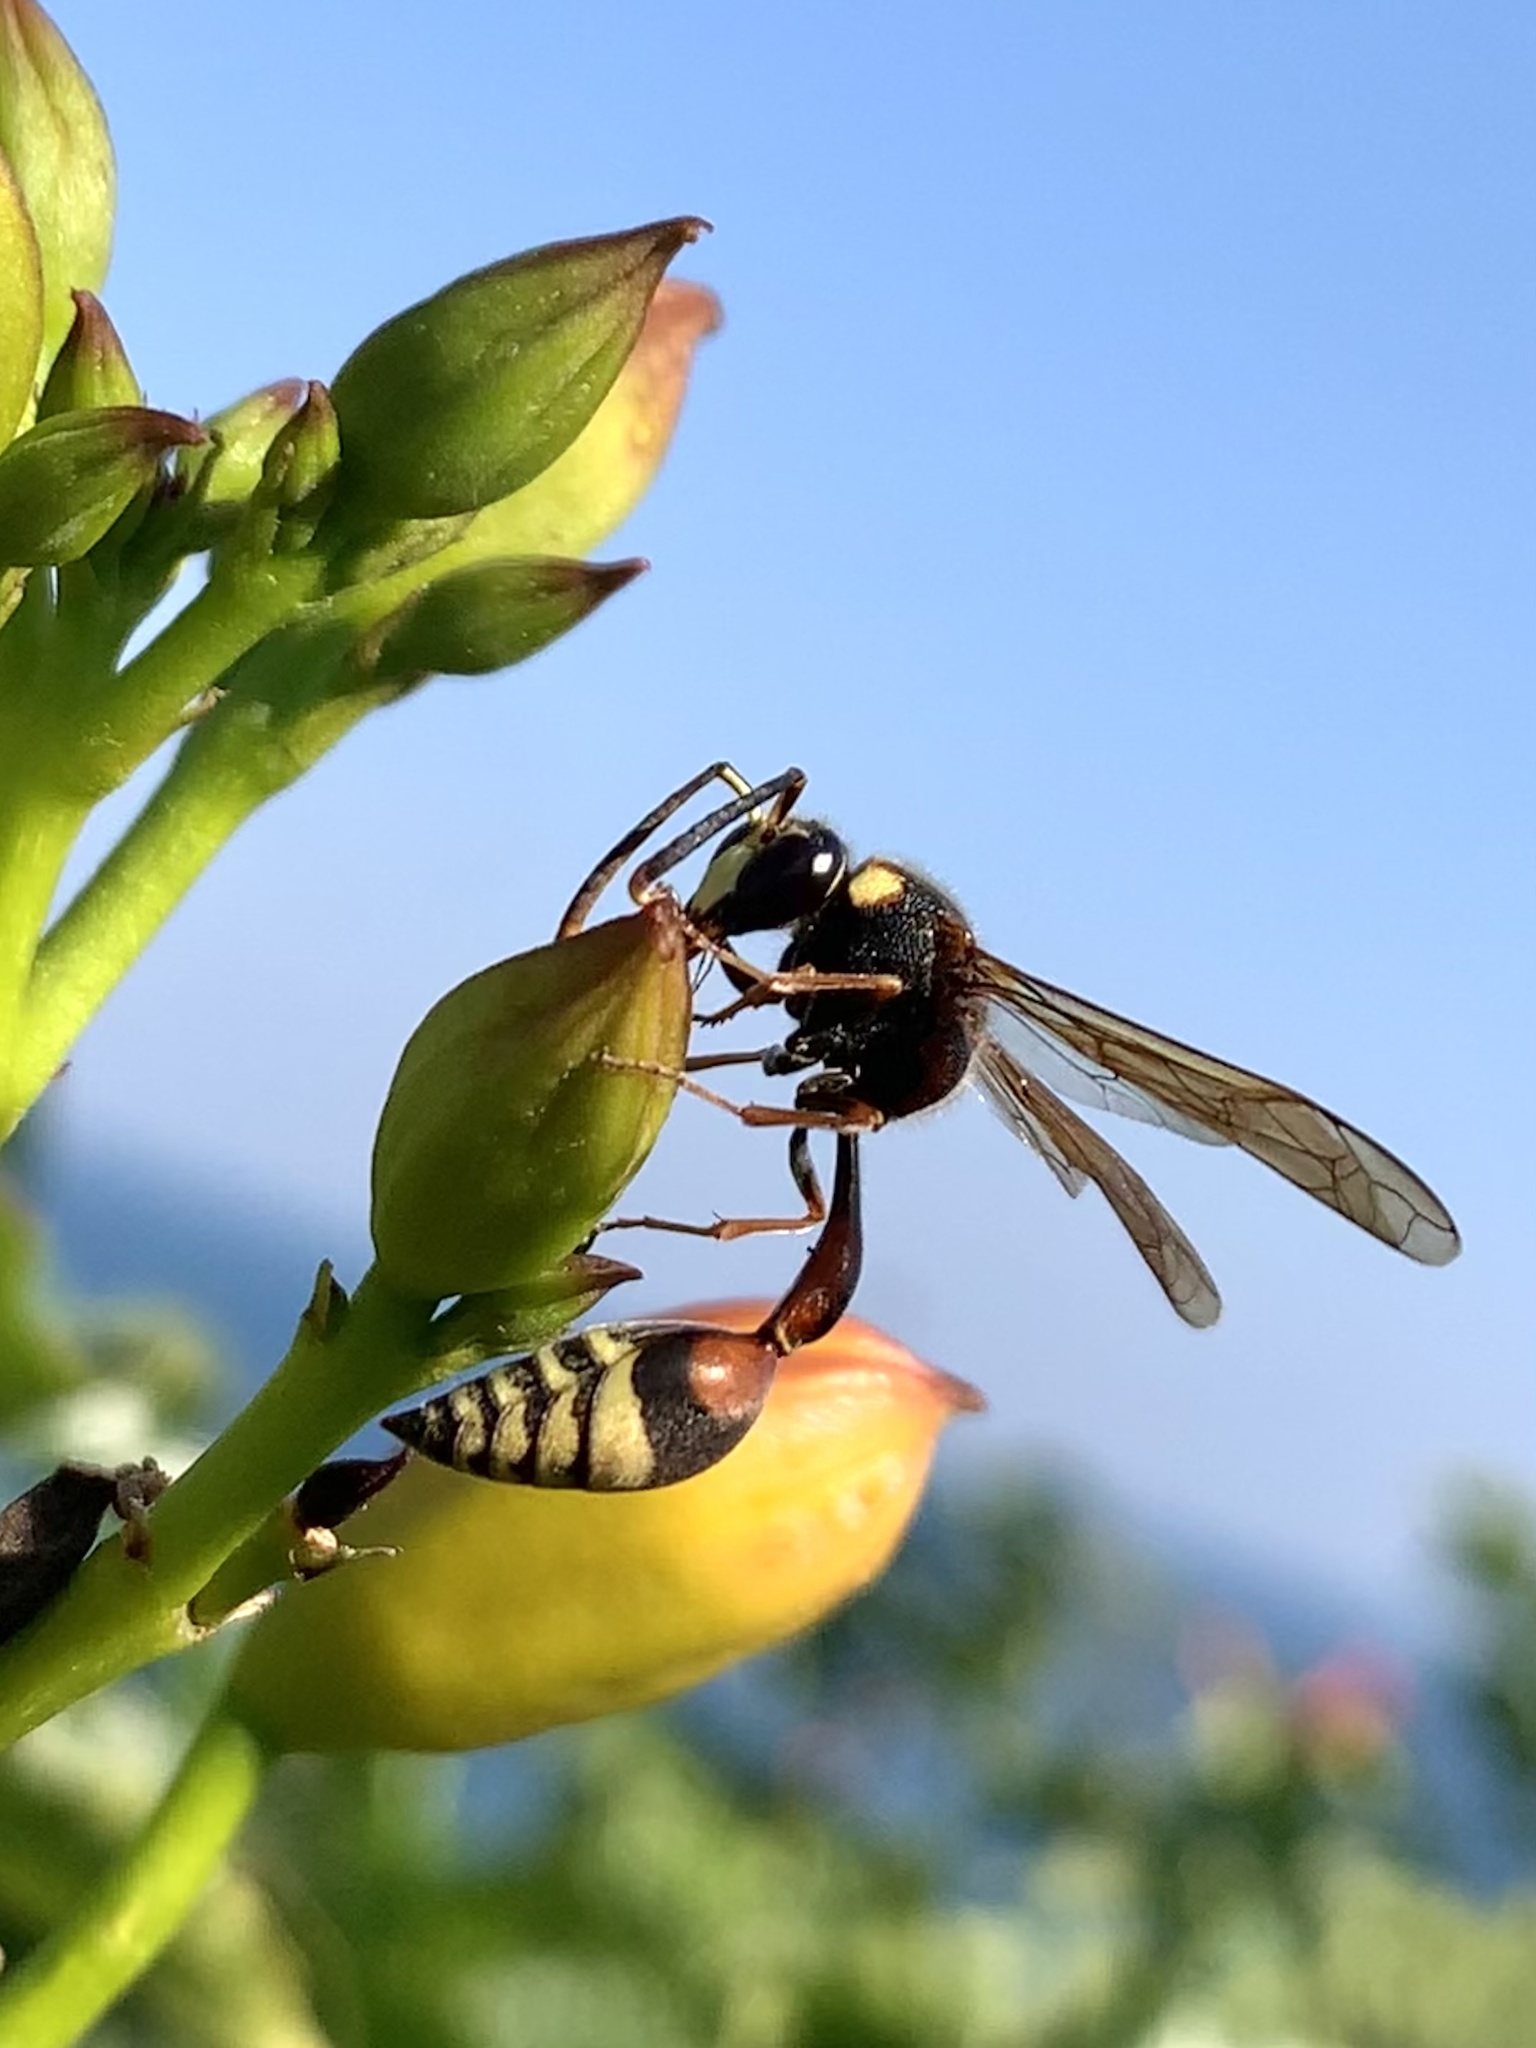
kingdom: Animalia
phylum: Arthropoda
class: Insecta
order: Hymenoptera
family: Eumenidae
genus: Delta
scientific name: Delta unguiculatum
